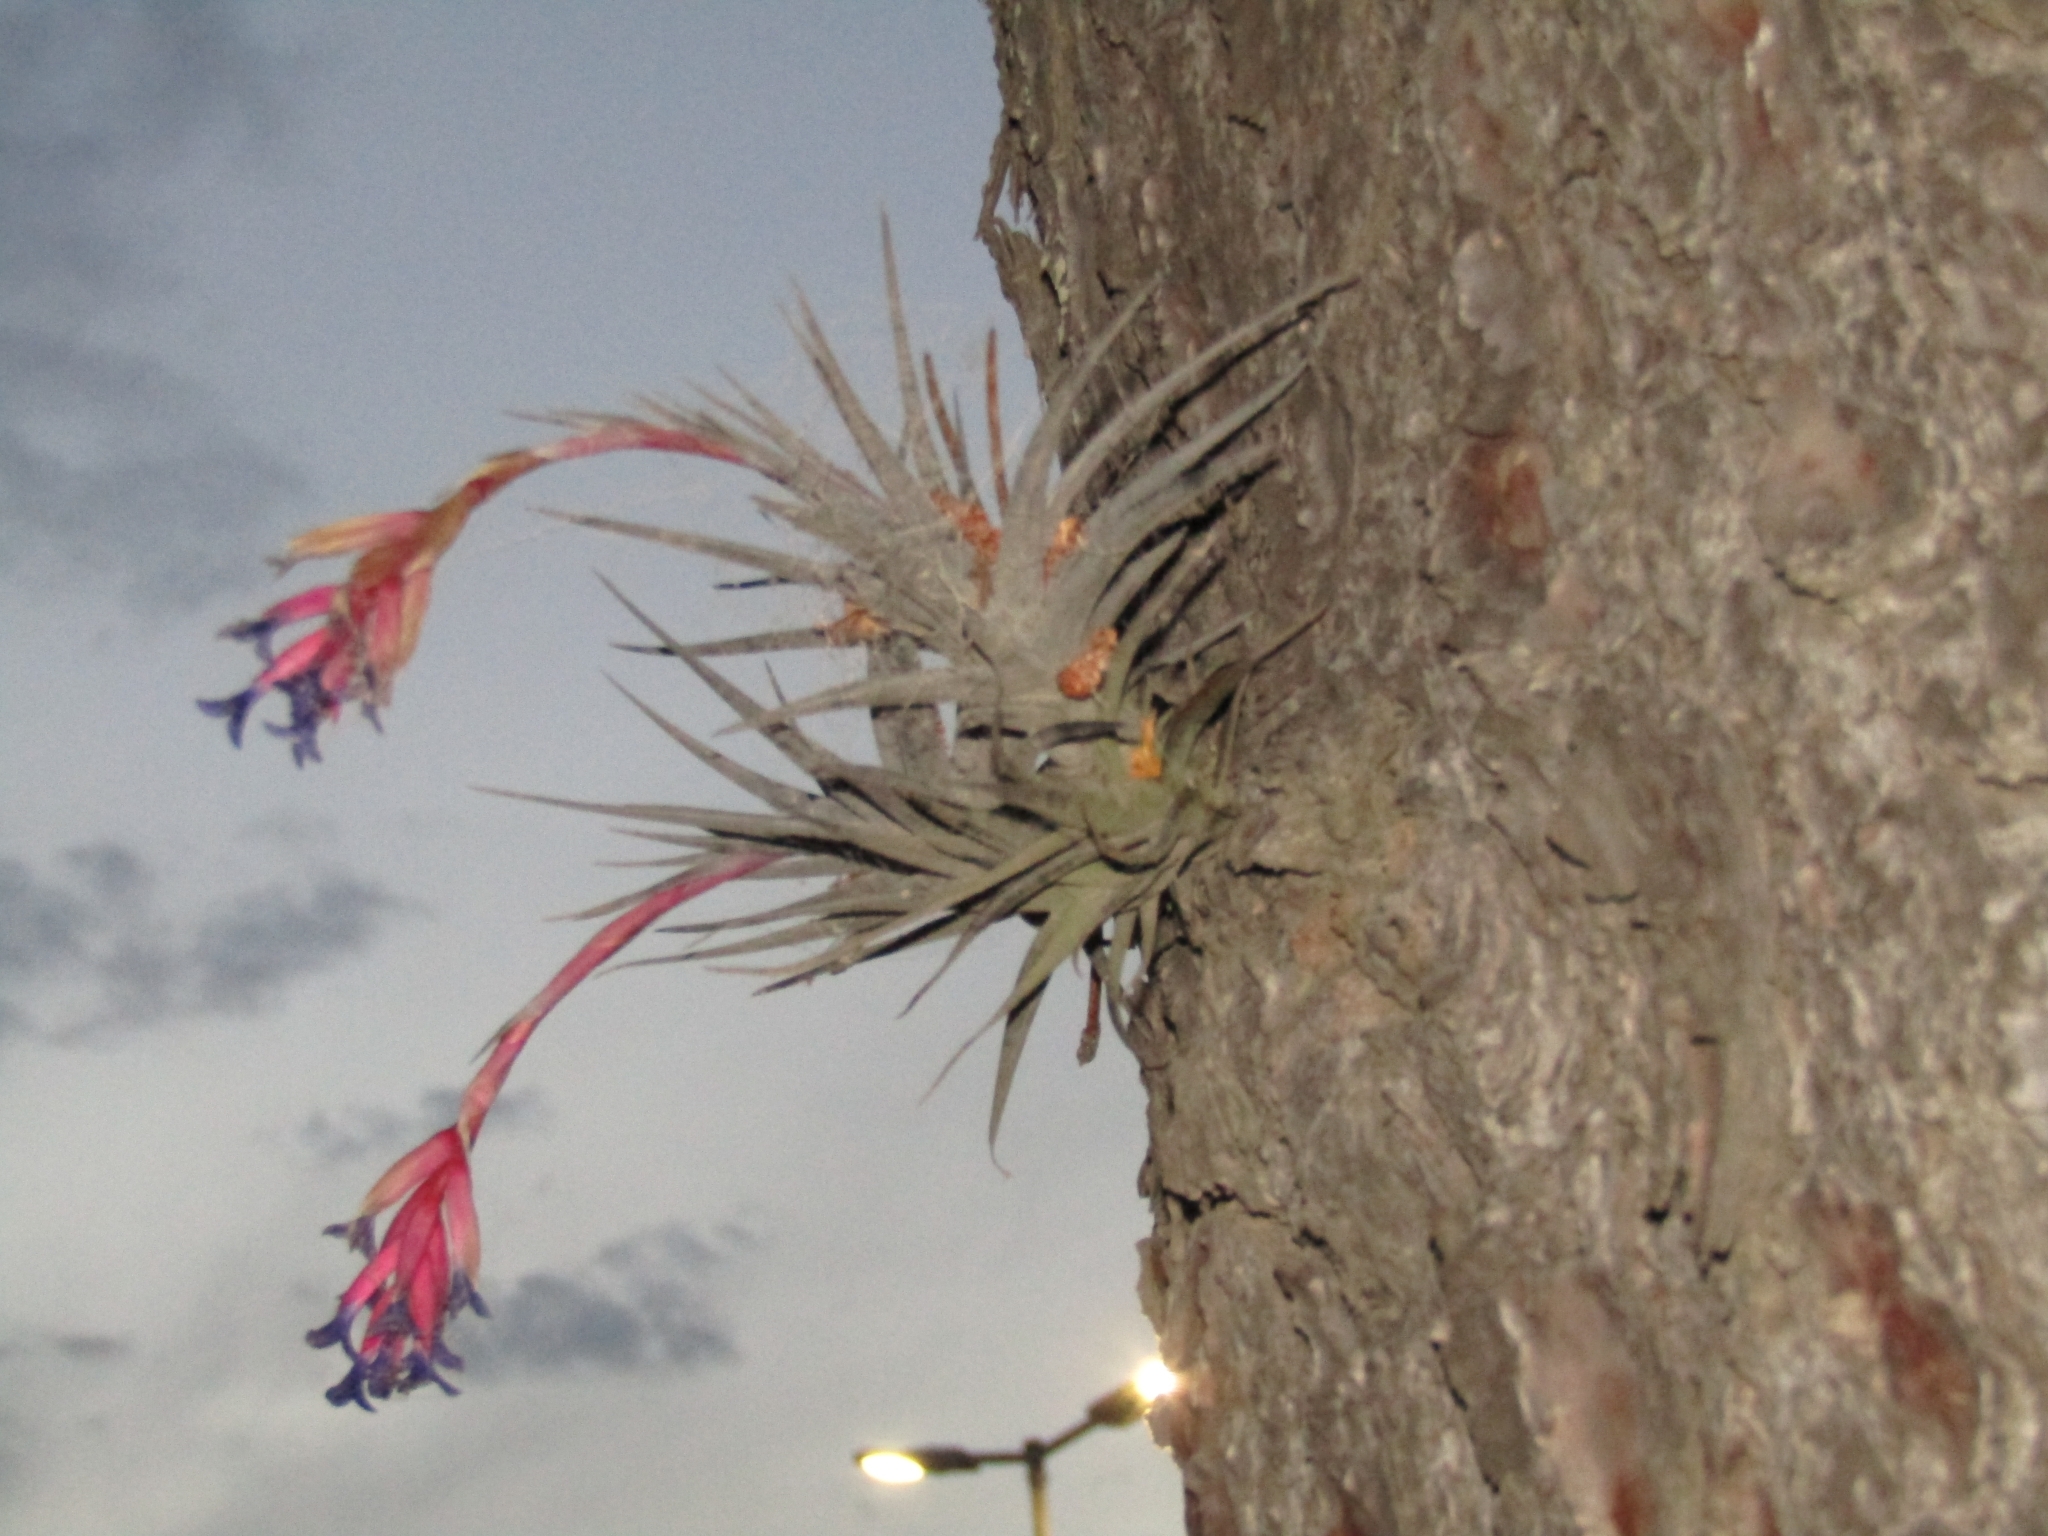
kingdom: Plantae
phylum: Tracheophyta
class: Liliopsida
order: Poales
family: Bromeliaceae
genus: Tillandsia
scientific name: Tillandsia aeranthos
